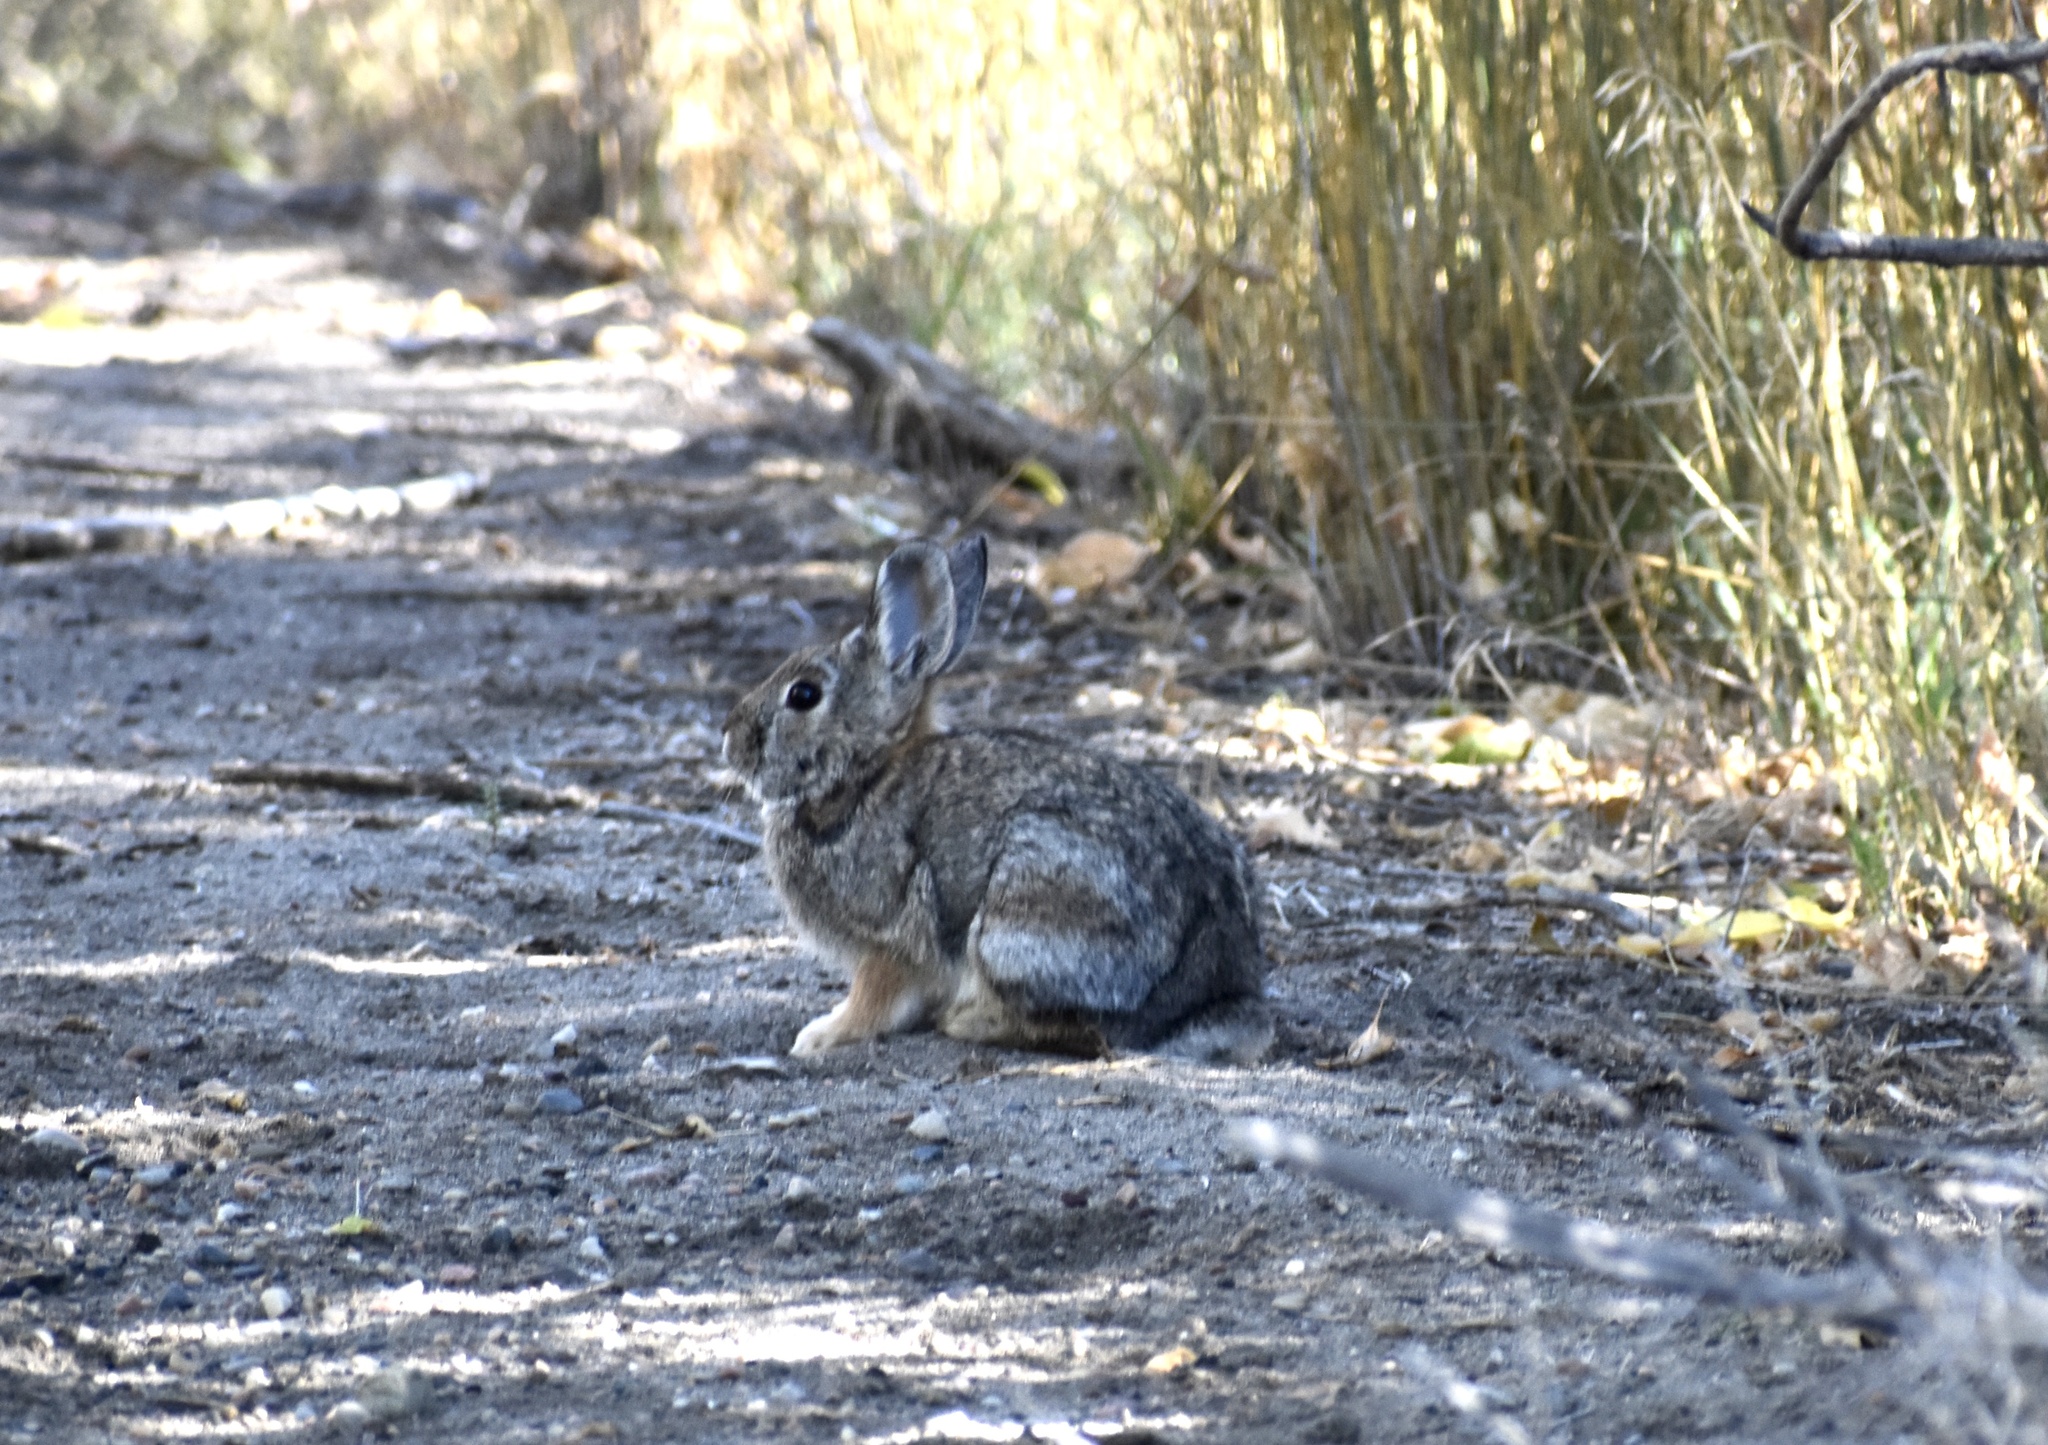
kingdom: Animalia
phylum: Chordata
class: Mammalia
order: Lagomorpha
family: Leporidae
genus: Sylvilagus
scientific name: Sylvilagus nuttallii
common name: Mountain cottontail
